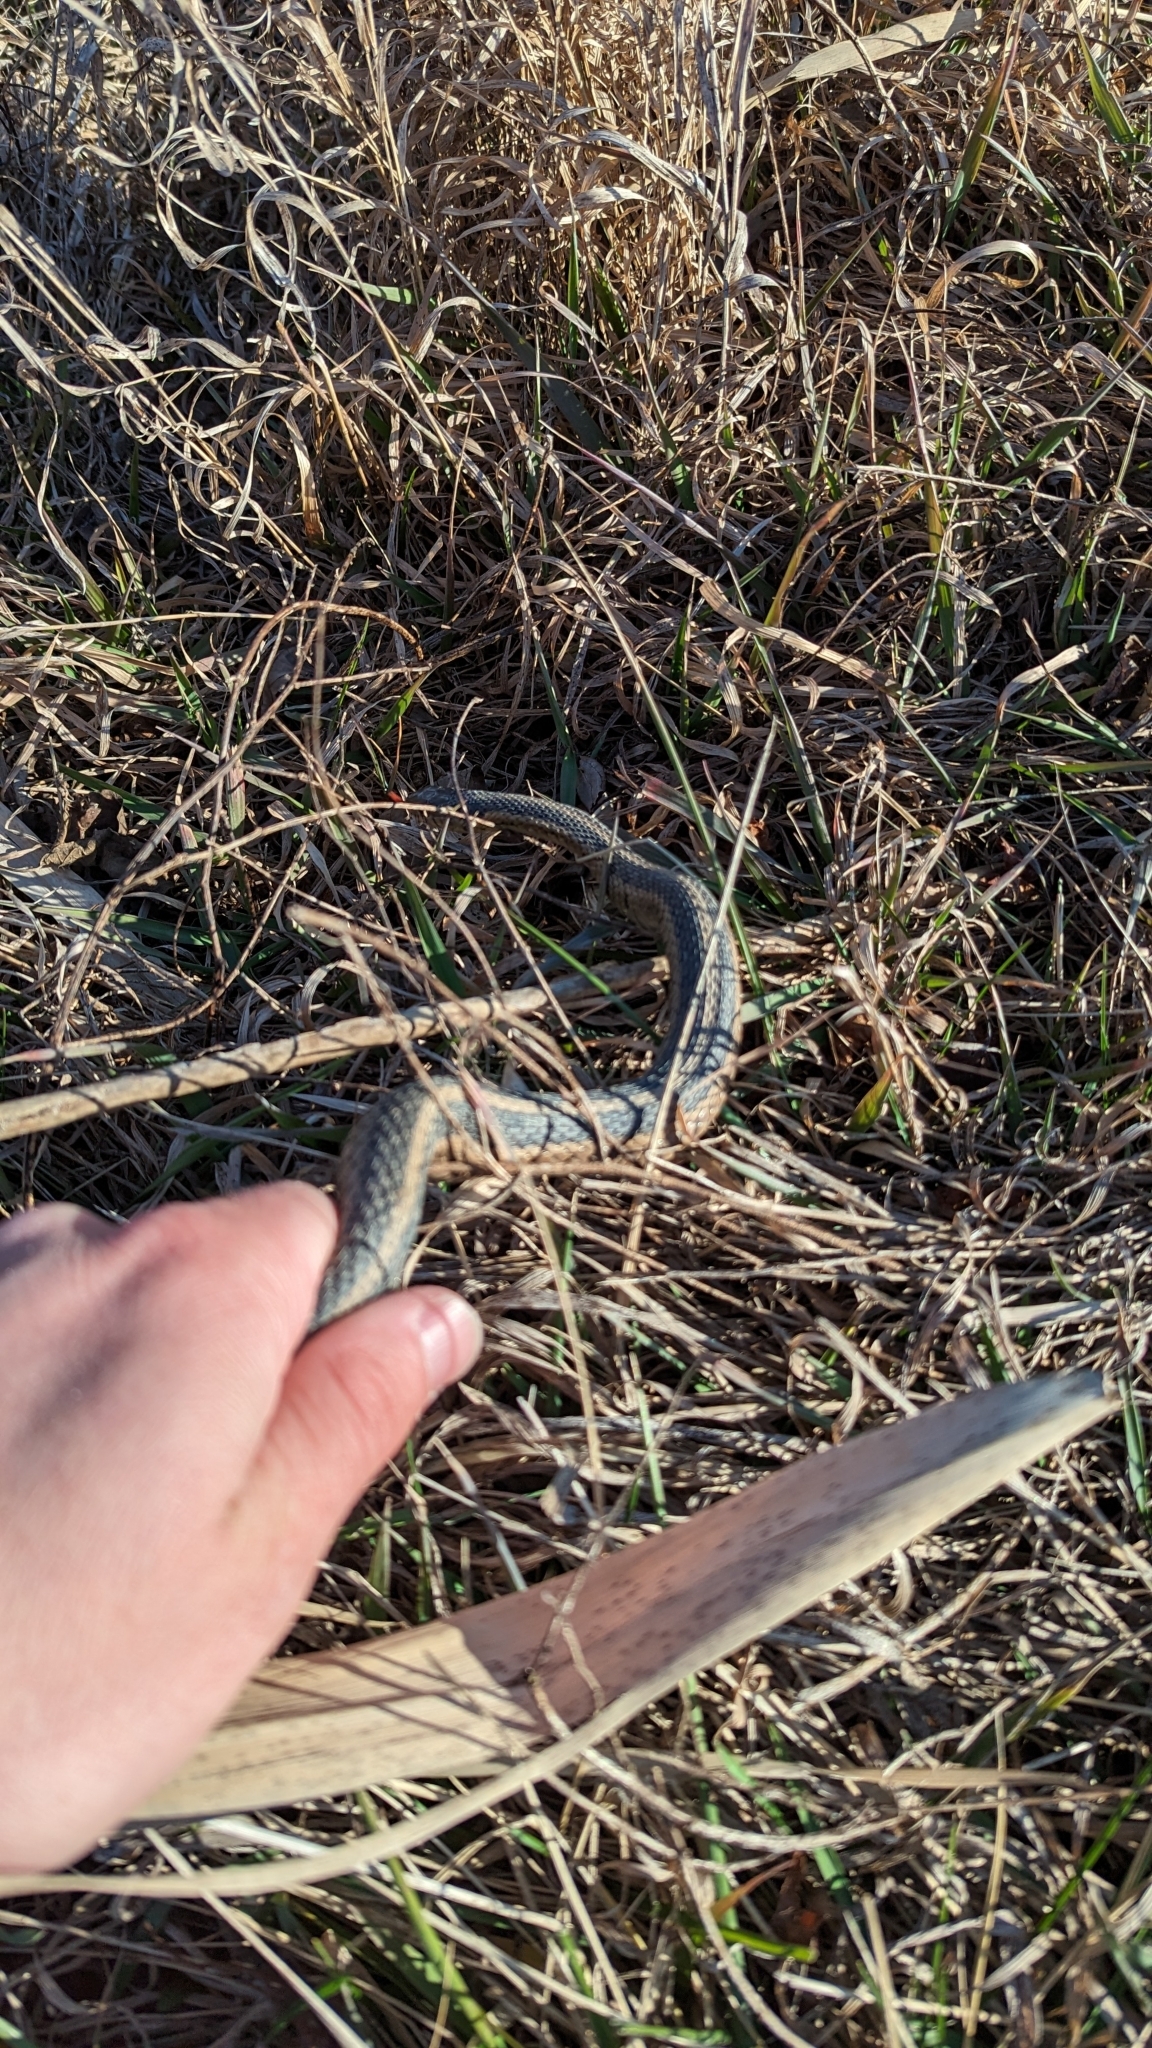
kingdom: Animalia
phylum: Chordata
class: Squamata
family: Colubridae
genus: Thamnophis
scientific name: Thamnophis sirtalis
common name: Common garter snake
